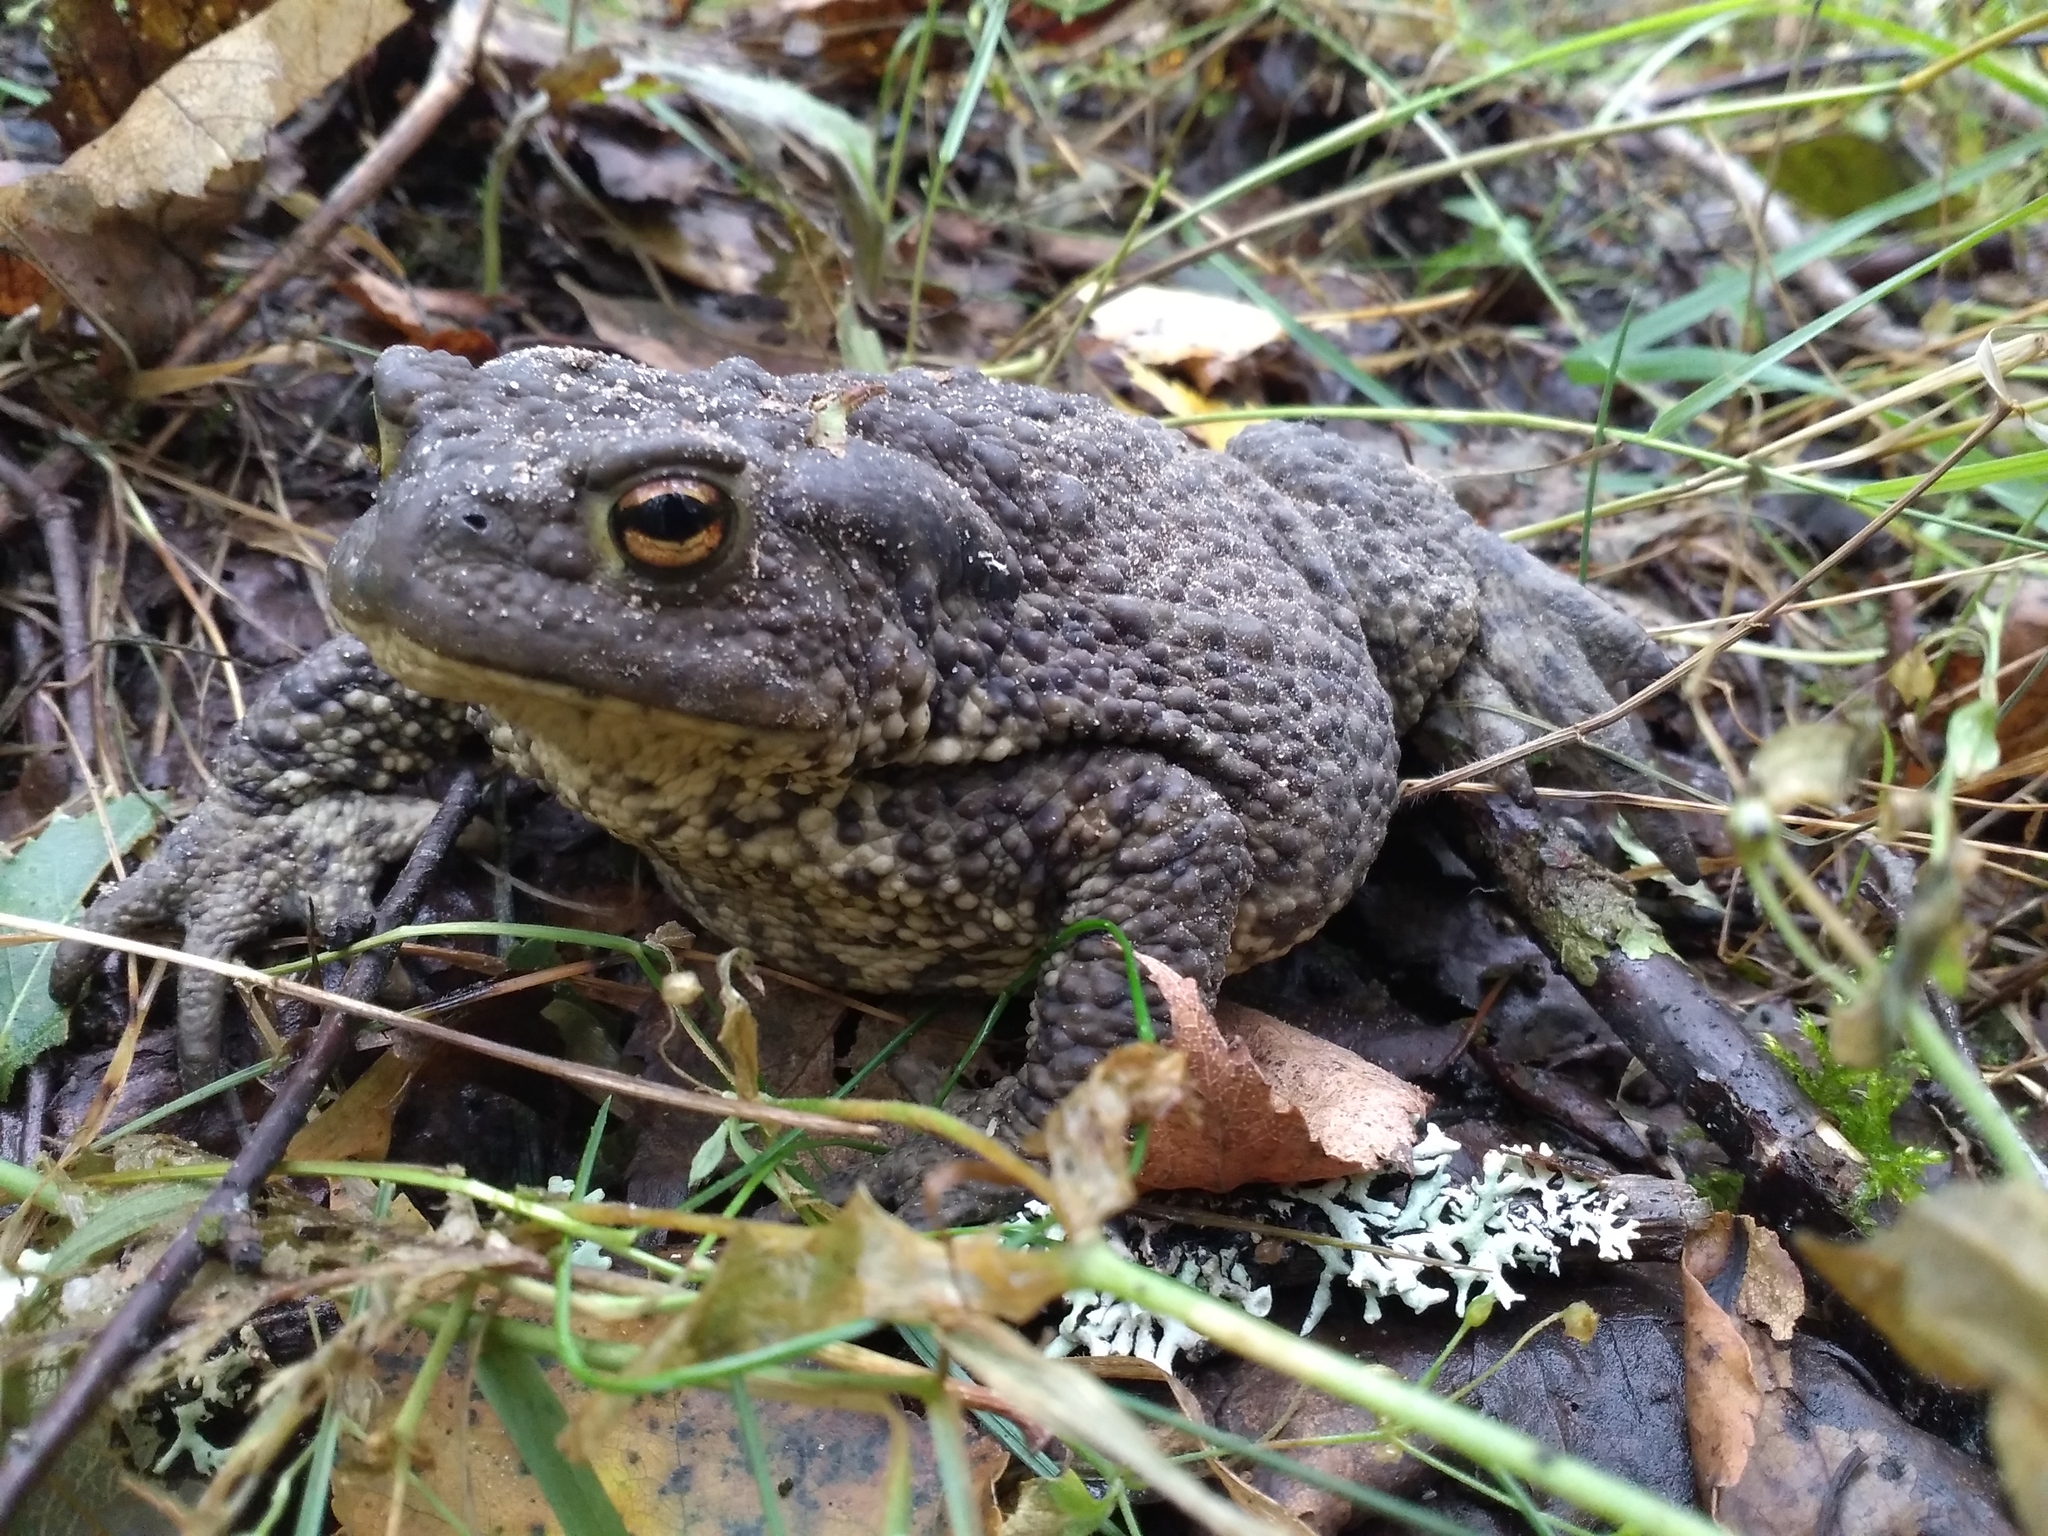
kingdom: Animalia
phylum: Chordata
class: Amphibia
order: Anura
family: Bufonidae
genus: Bufo
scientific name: Bufo bufo
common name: Common toad
